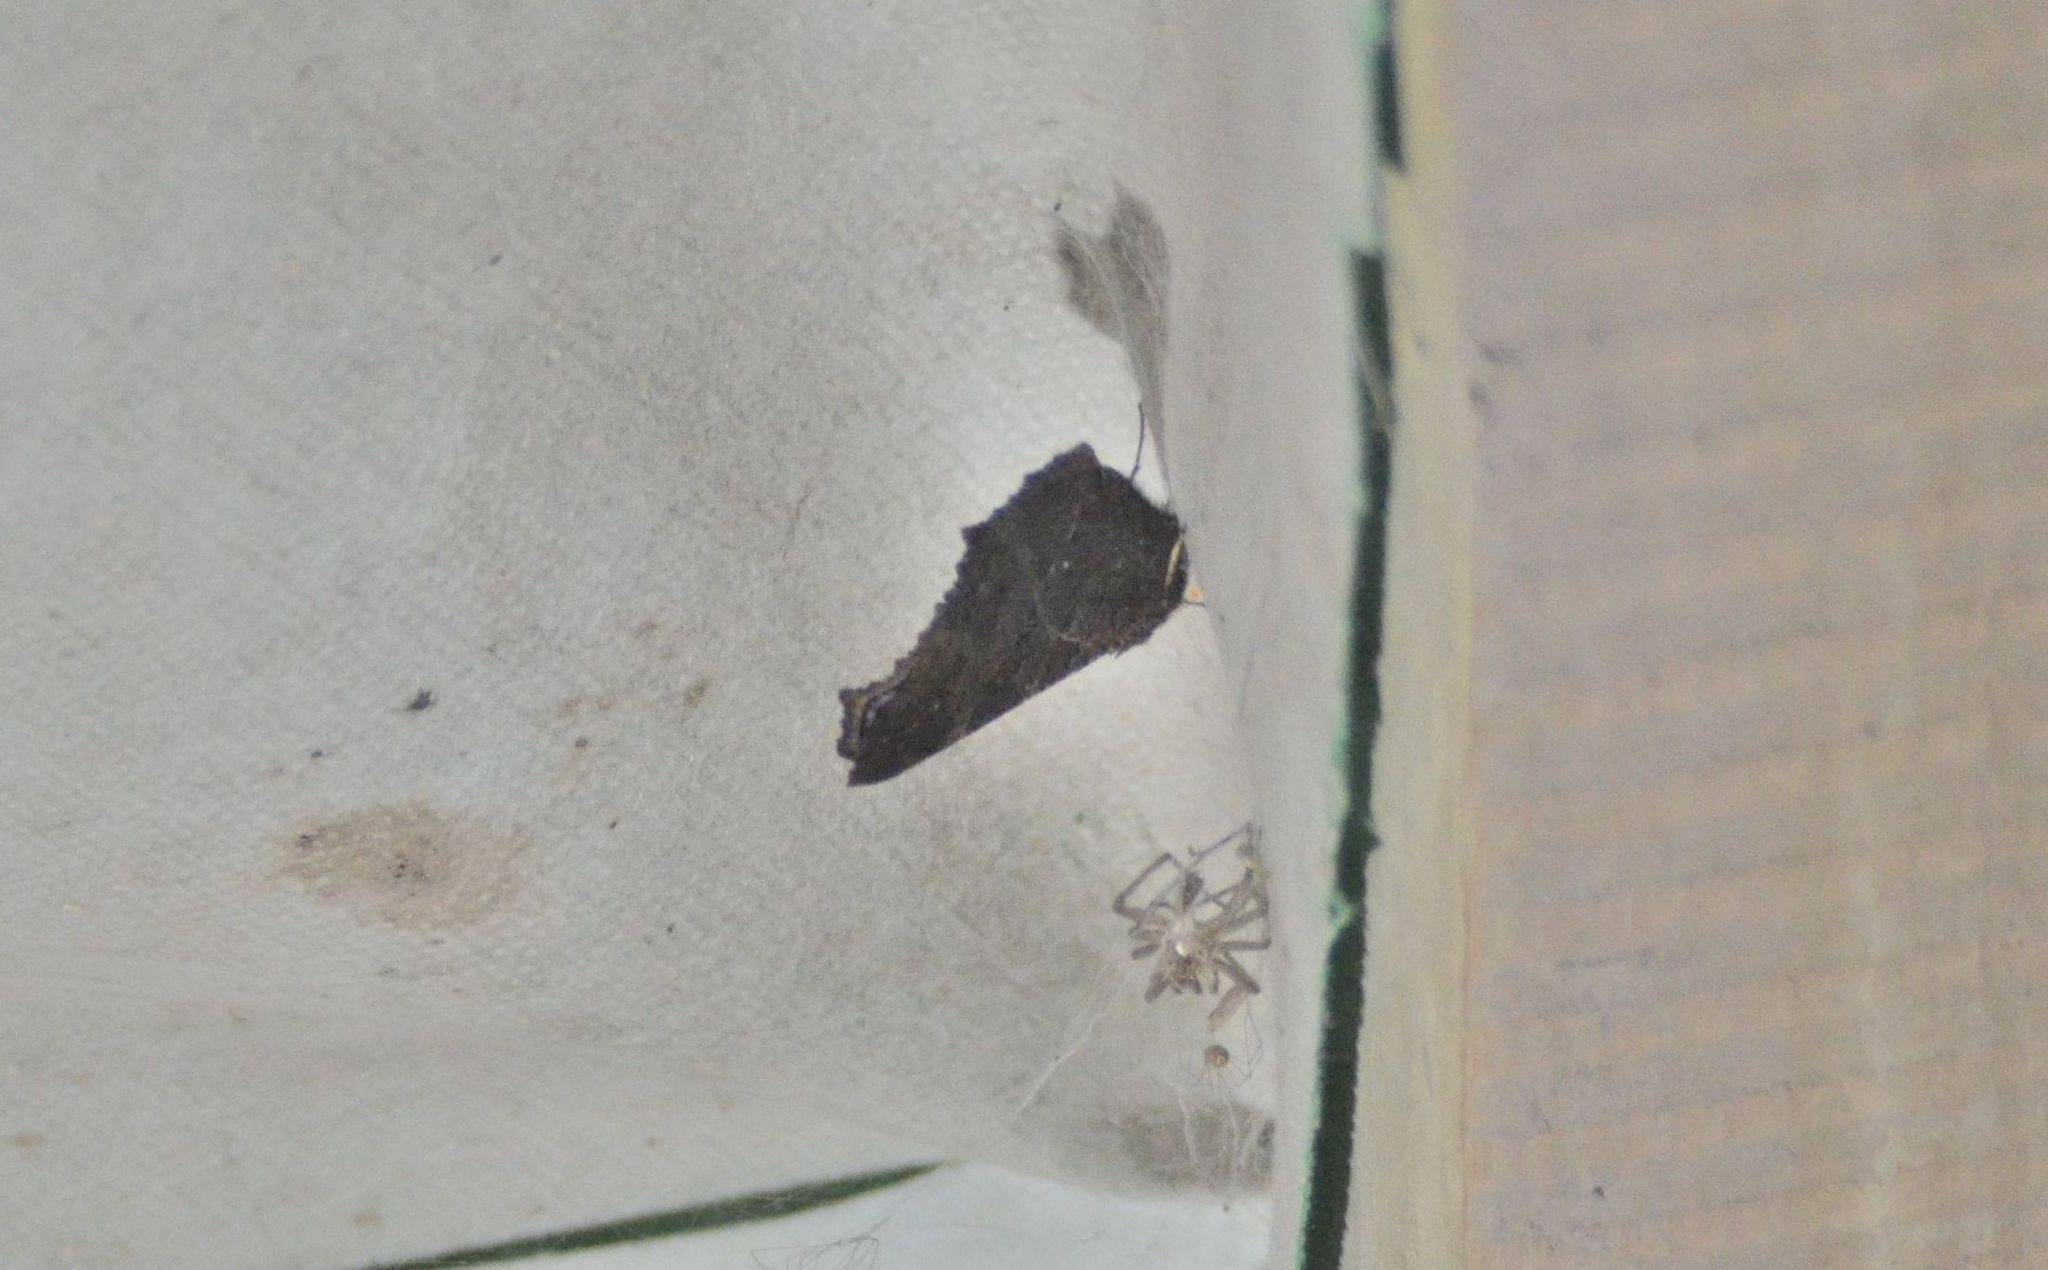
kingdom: Animalia
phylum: Arthropoda
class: Insecta
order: Lepidoptera
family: Nymphalidae
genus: Aglais
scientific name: Aglais io
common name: Peacock
